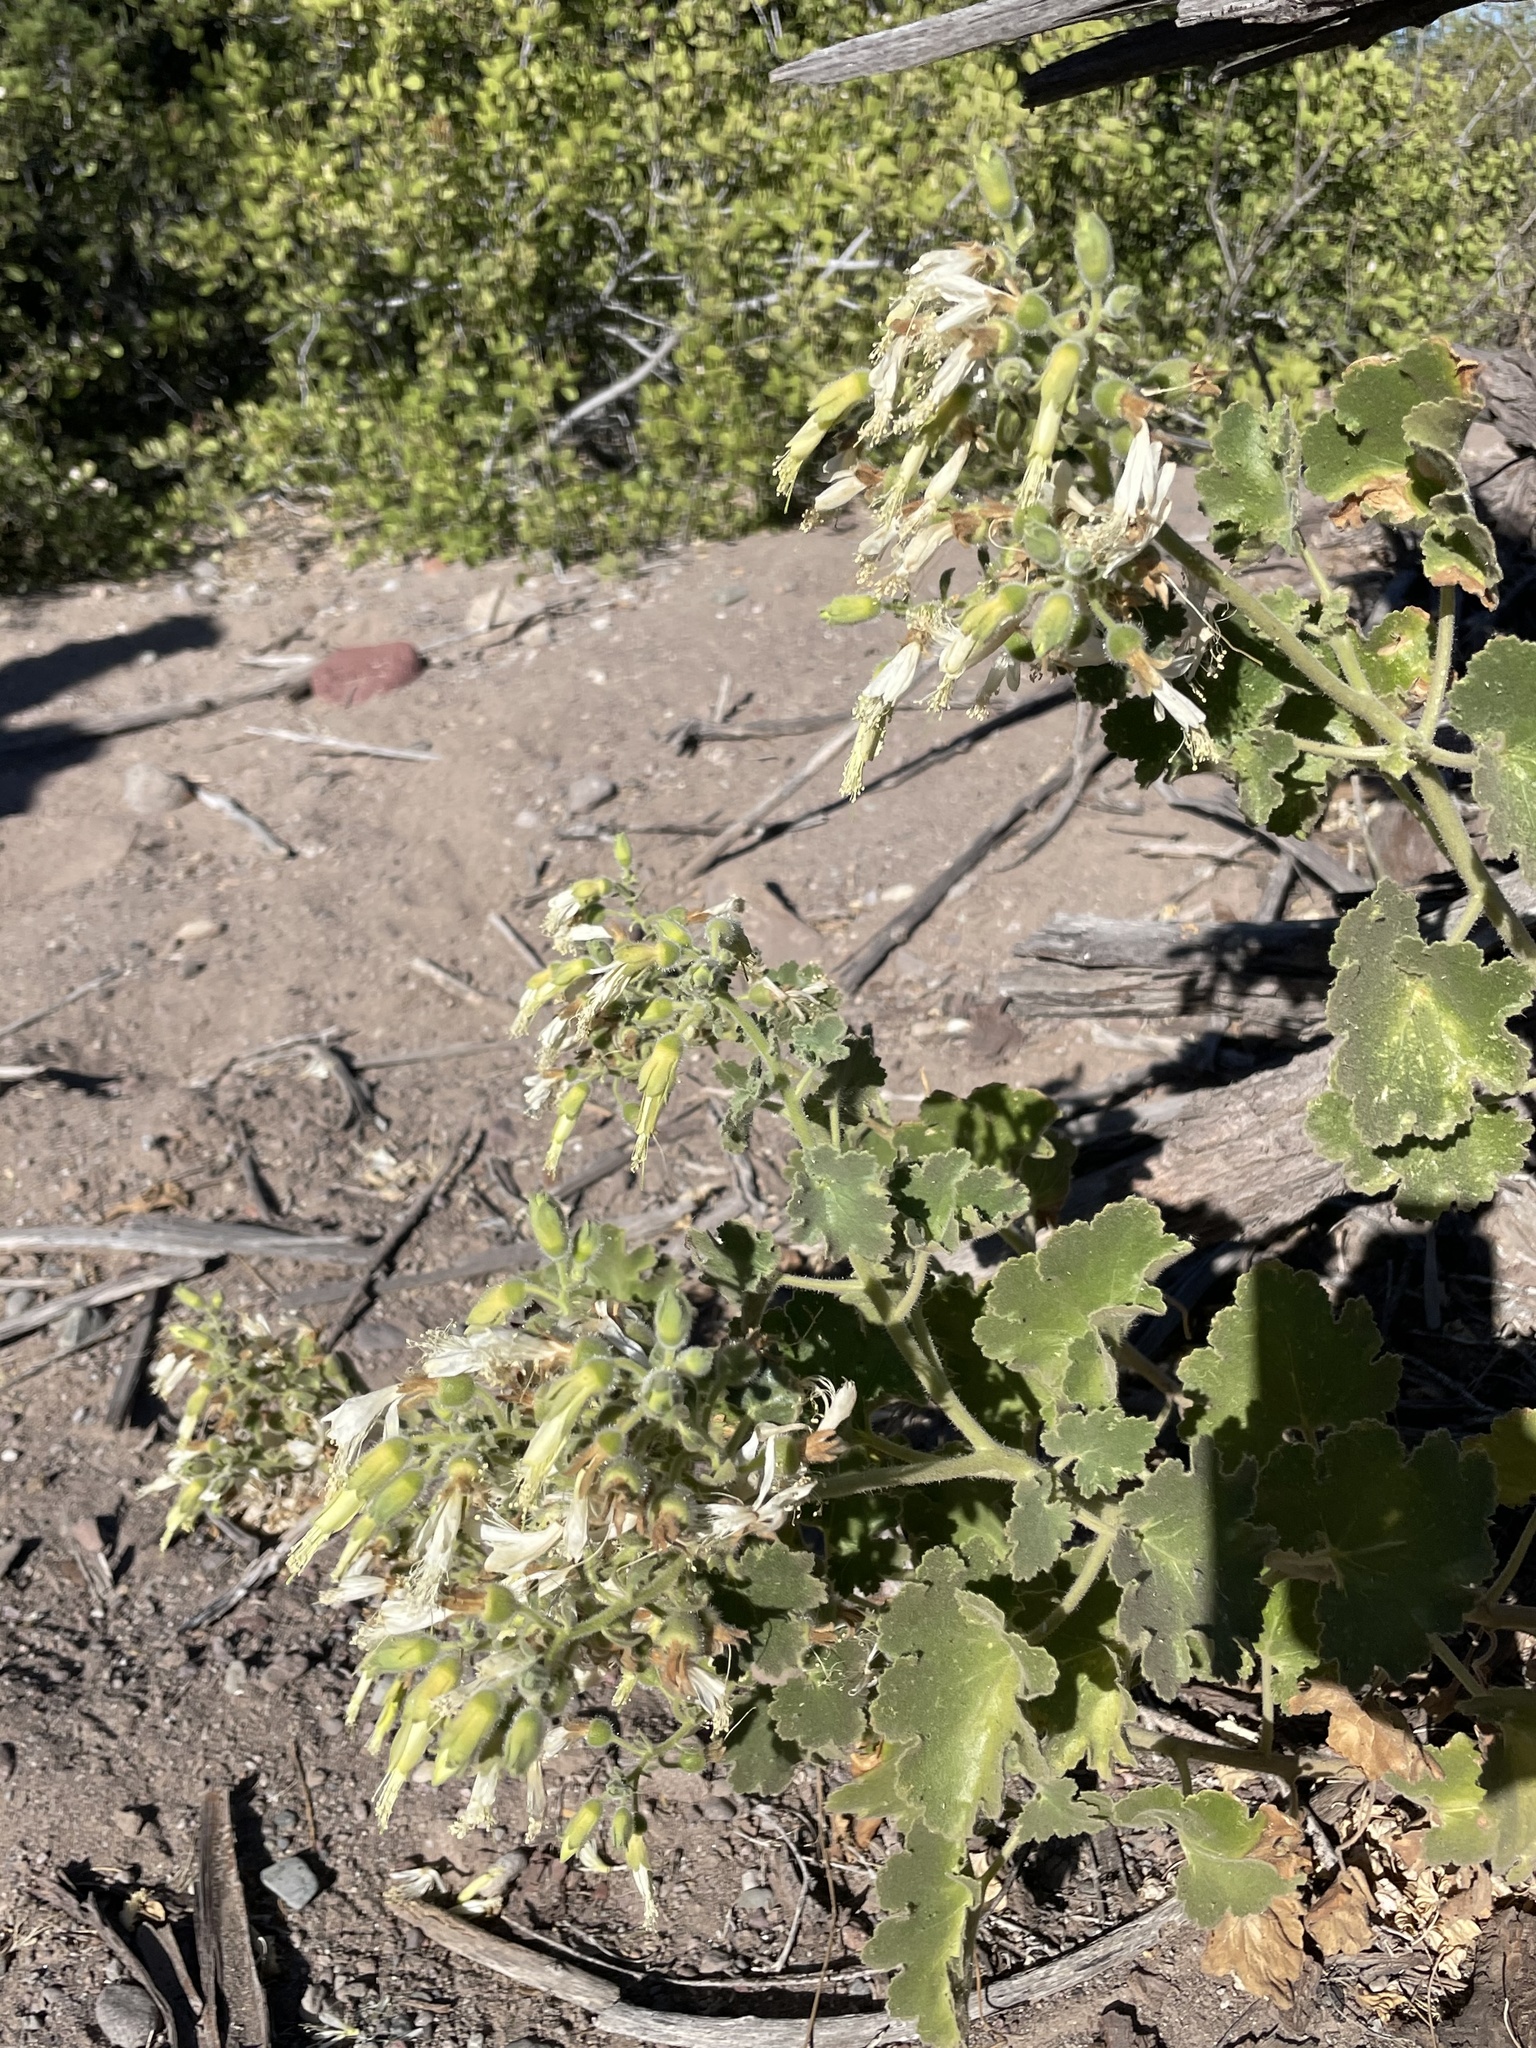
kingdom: Plantae
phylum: Tracheophyta
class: Magnoliopsida
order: Cornales
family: Loasaceae
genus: Eucnide
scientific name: Eucnide cordata
